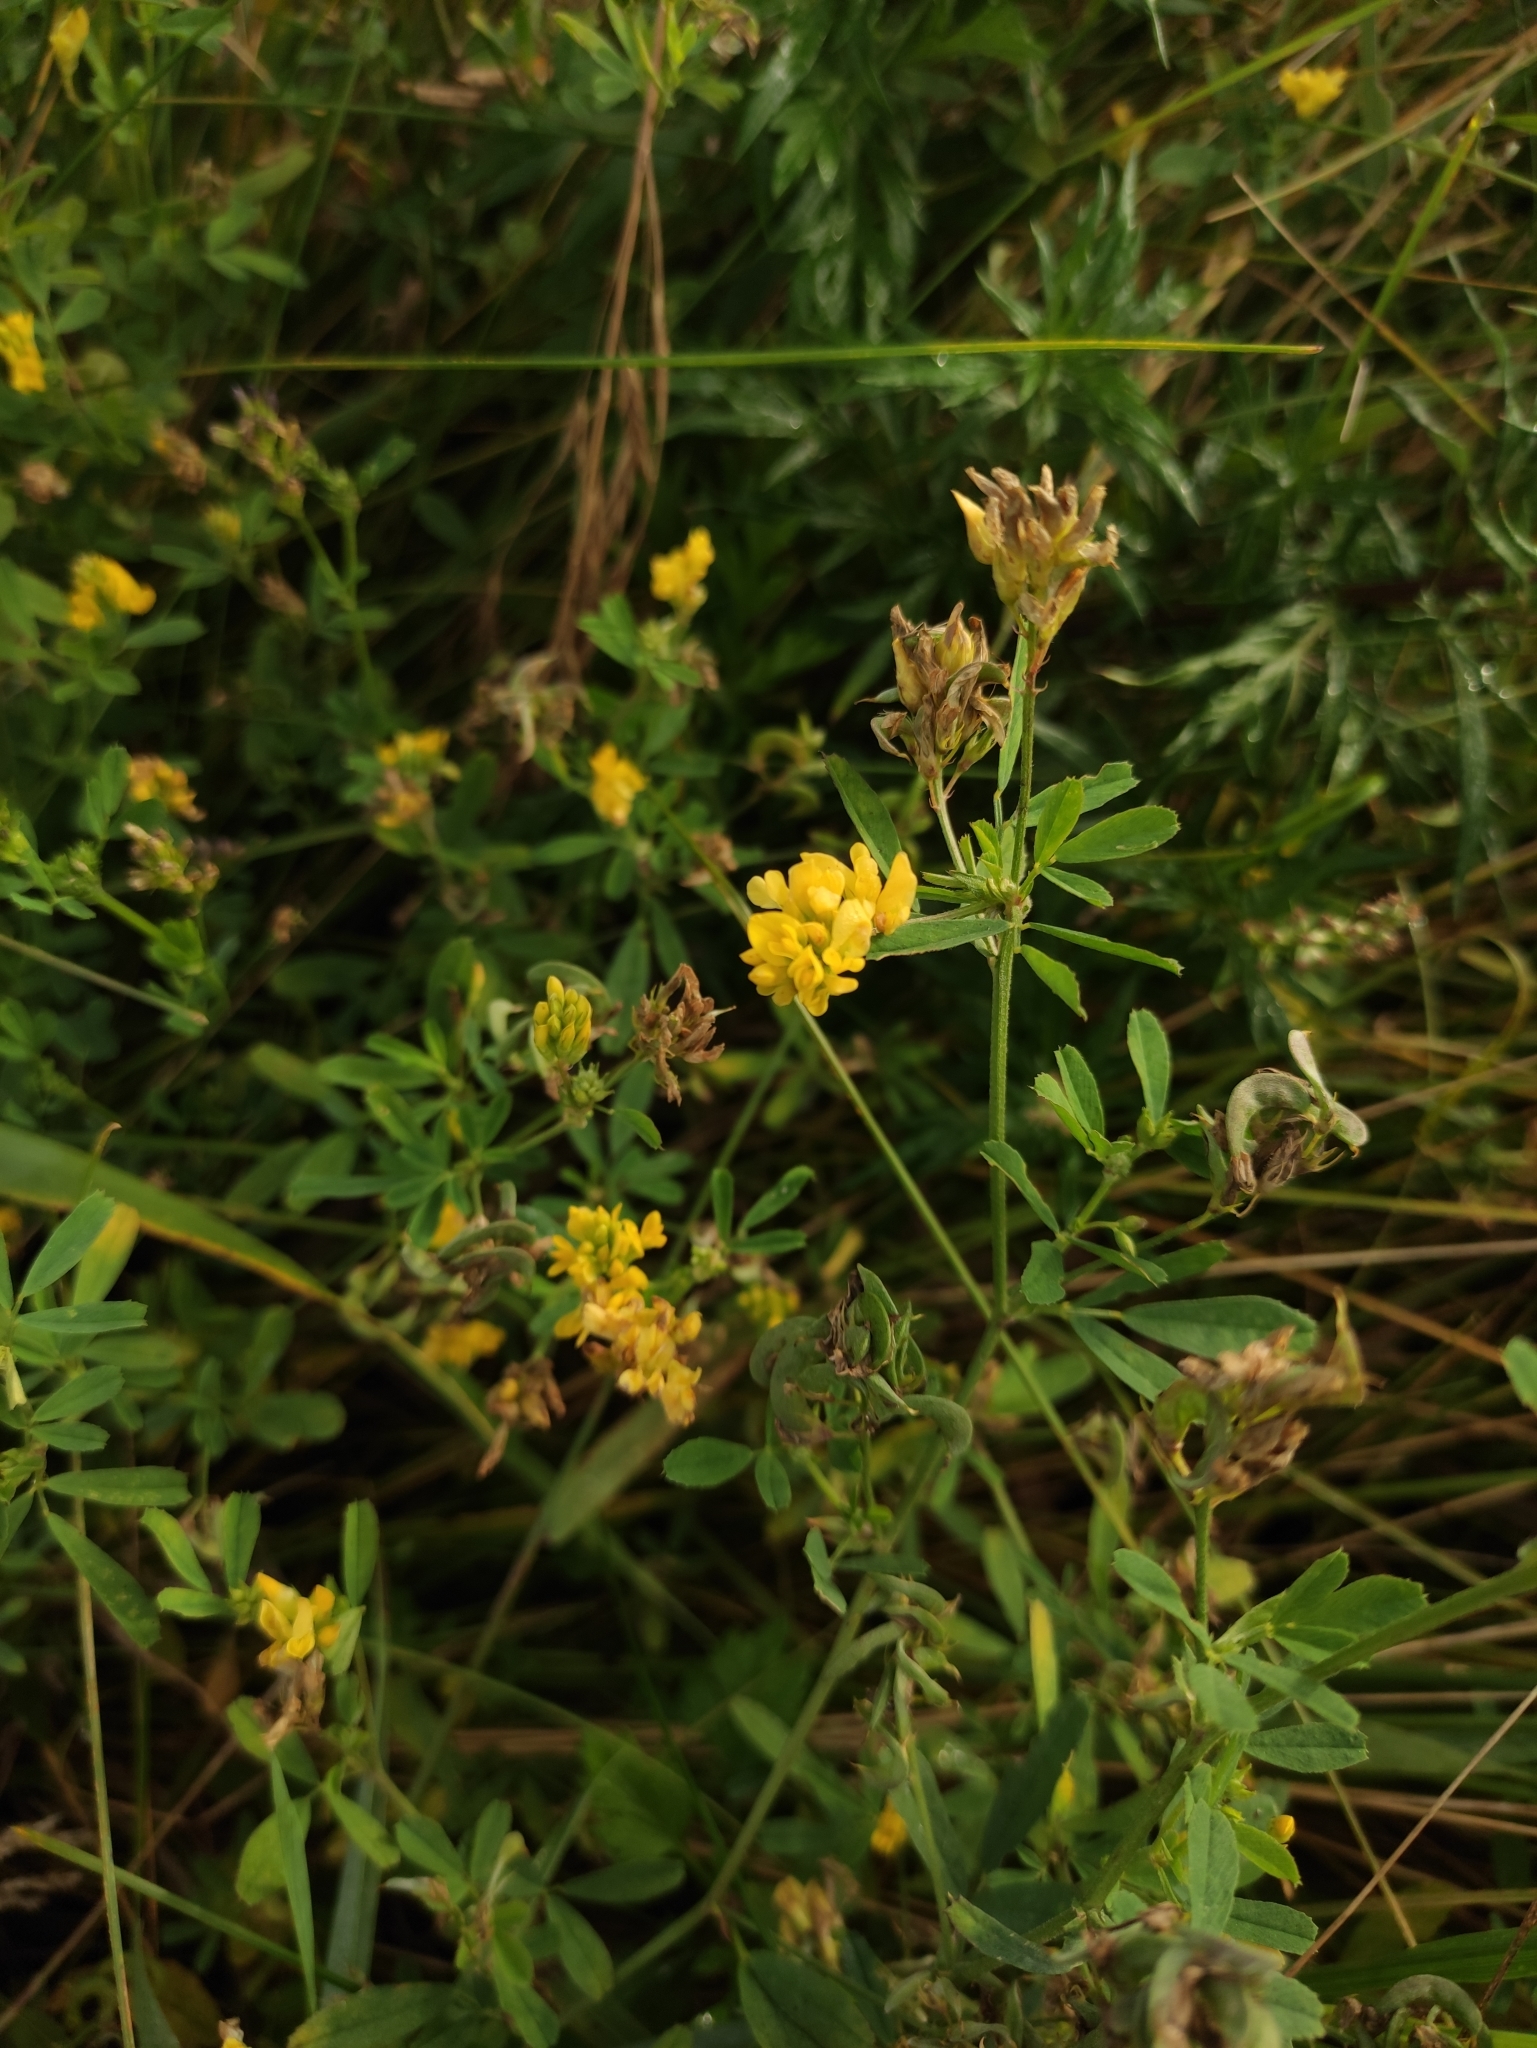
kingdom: Plantae
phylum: Tracheophyta
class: Magnoliopsida
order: Fabales
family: Fabaceae
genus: Medicago
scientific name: Medicago varia
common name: Sand lucerne
